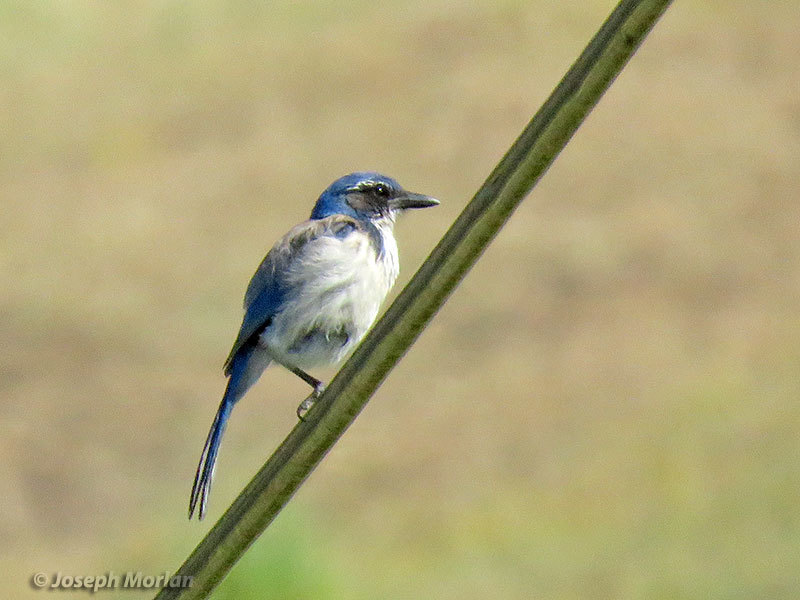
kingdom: Animalia
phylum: Chordata
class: Aves
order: Passeriformes
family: Corvidae
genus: Aphelocoma
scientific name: Aphelocoma californica
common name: California scrub-jay
